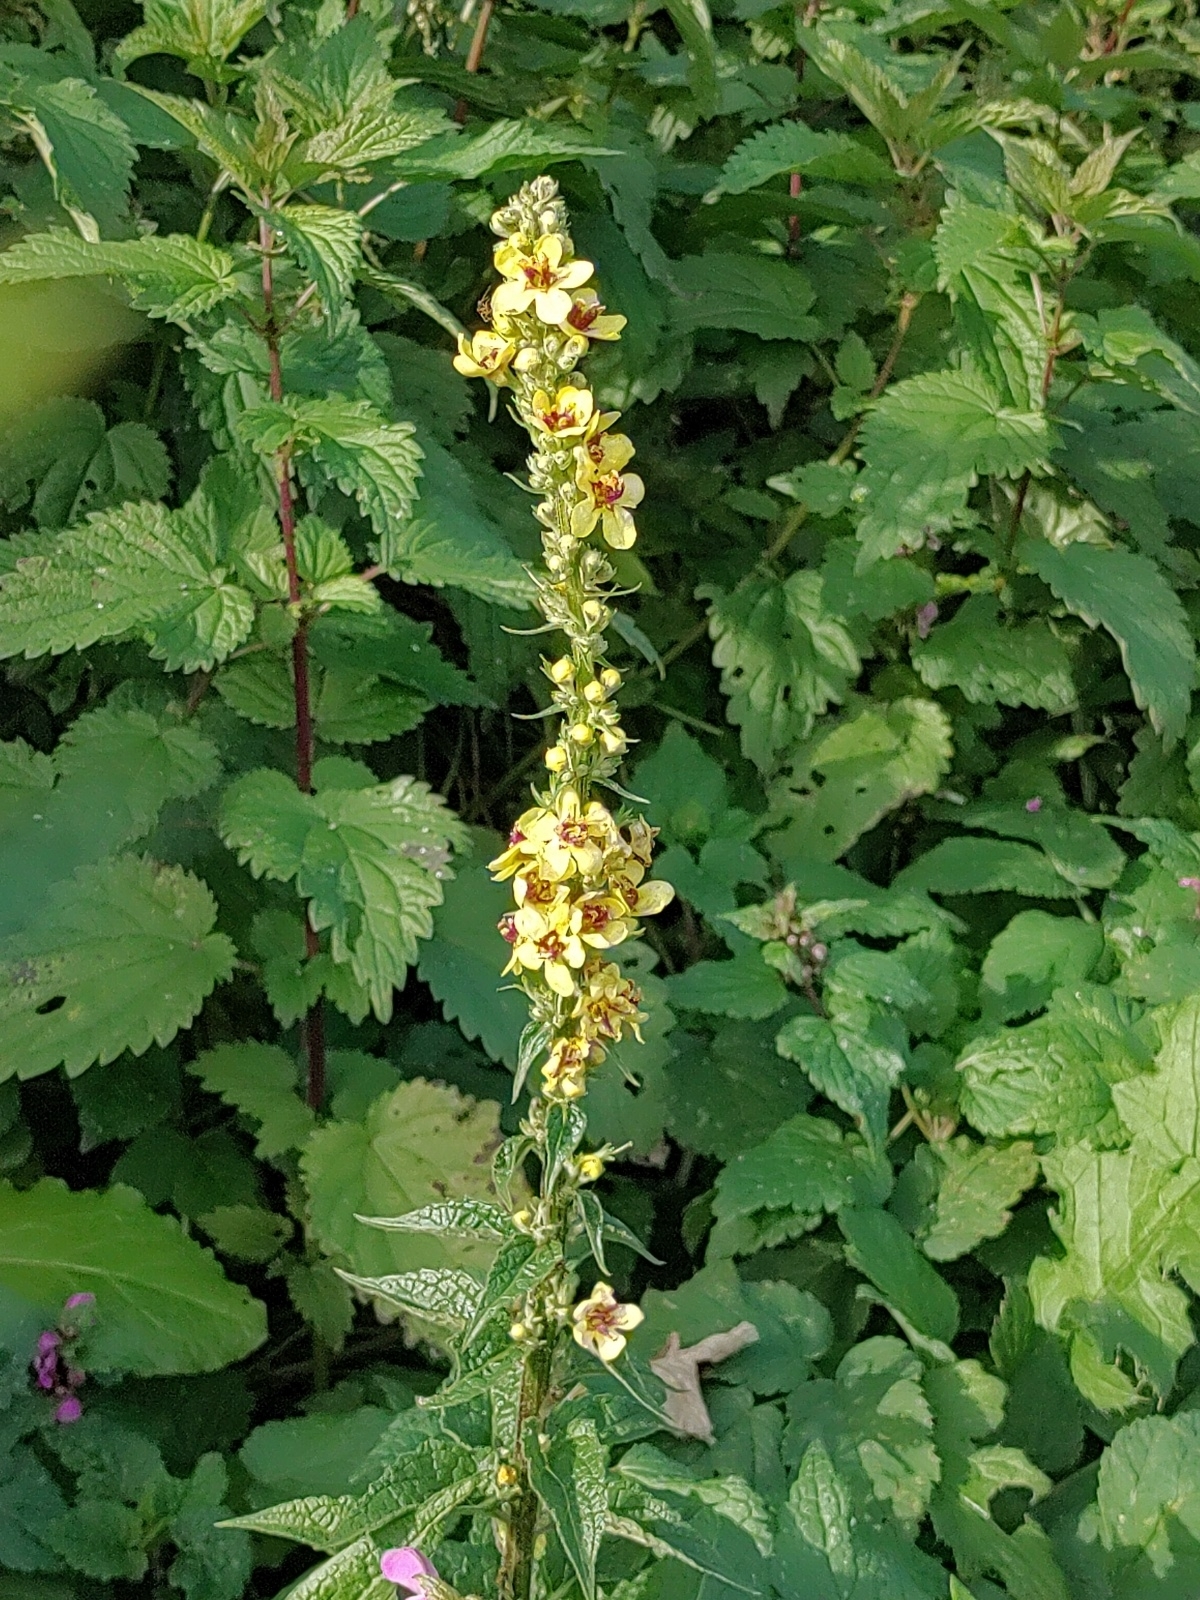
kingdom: Plantae
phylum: Tracheophyta
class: Magnoliopsida
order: Lamiales
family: Scrophulariaceae
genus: Verbascum
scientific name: Verbascum nigrum
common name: Dark mullein
